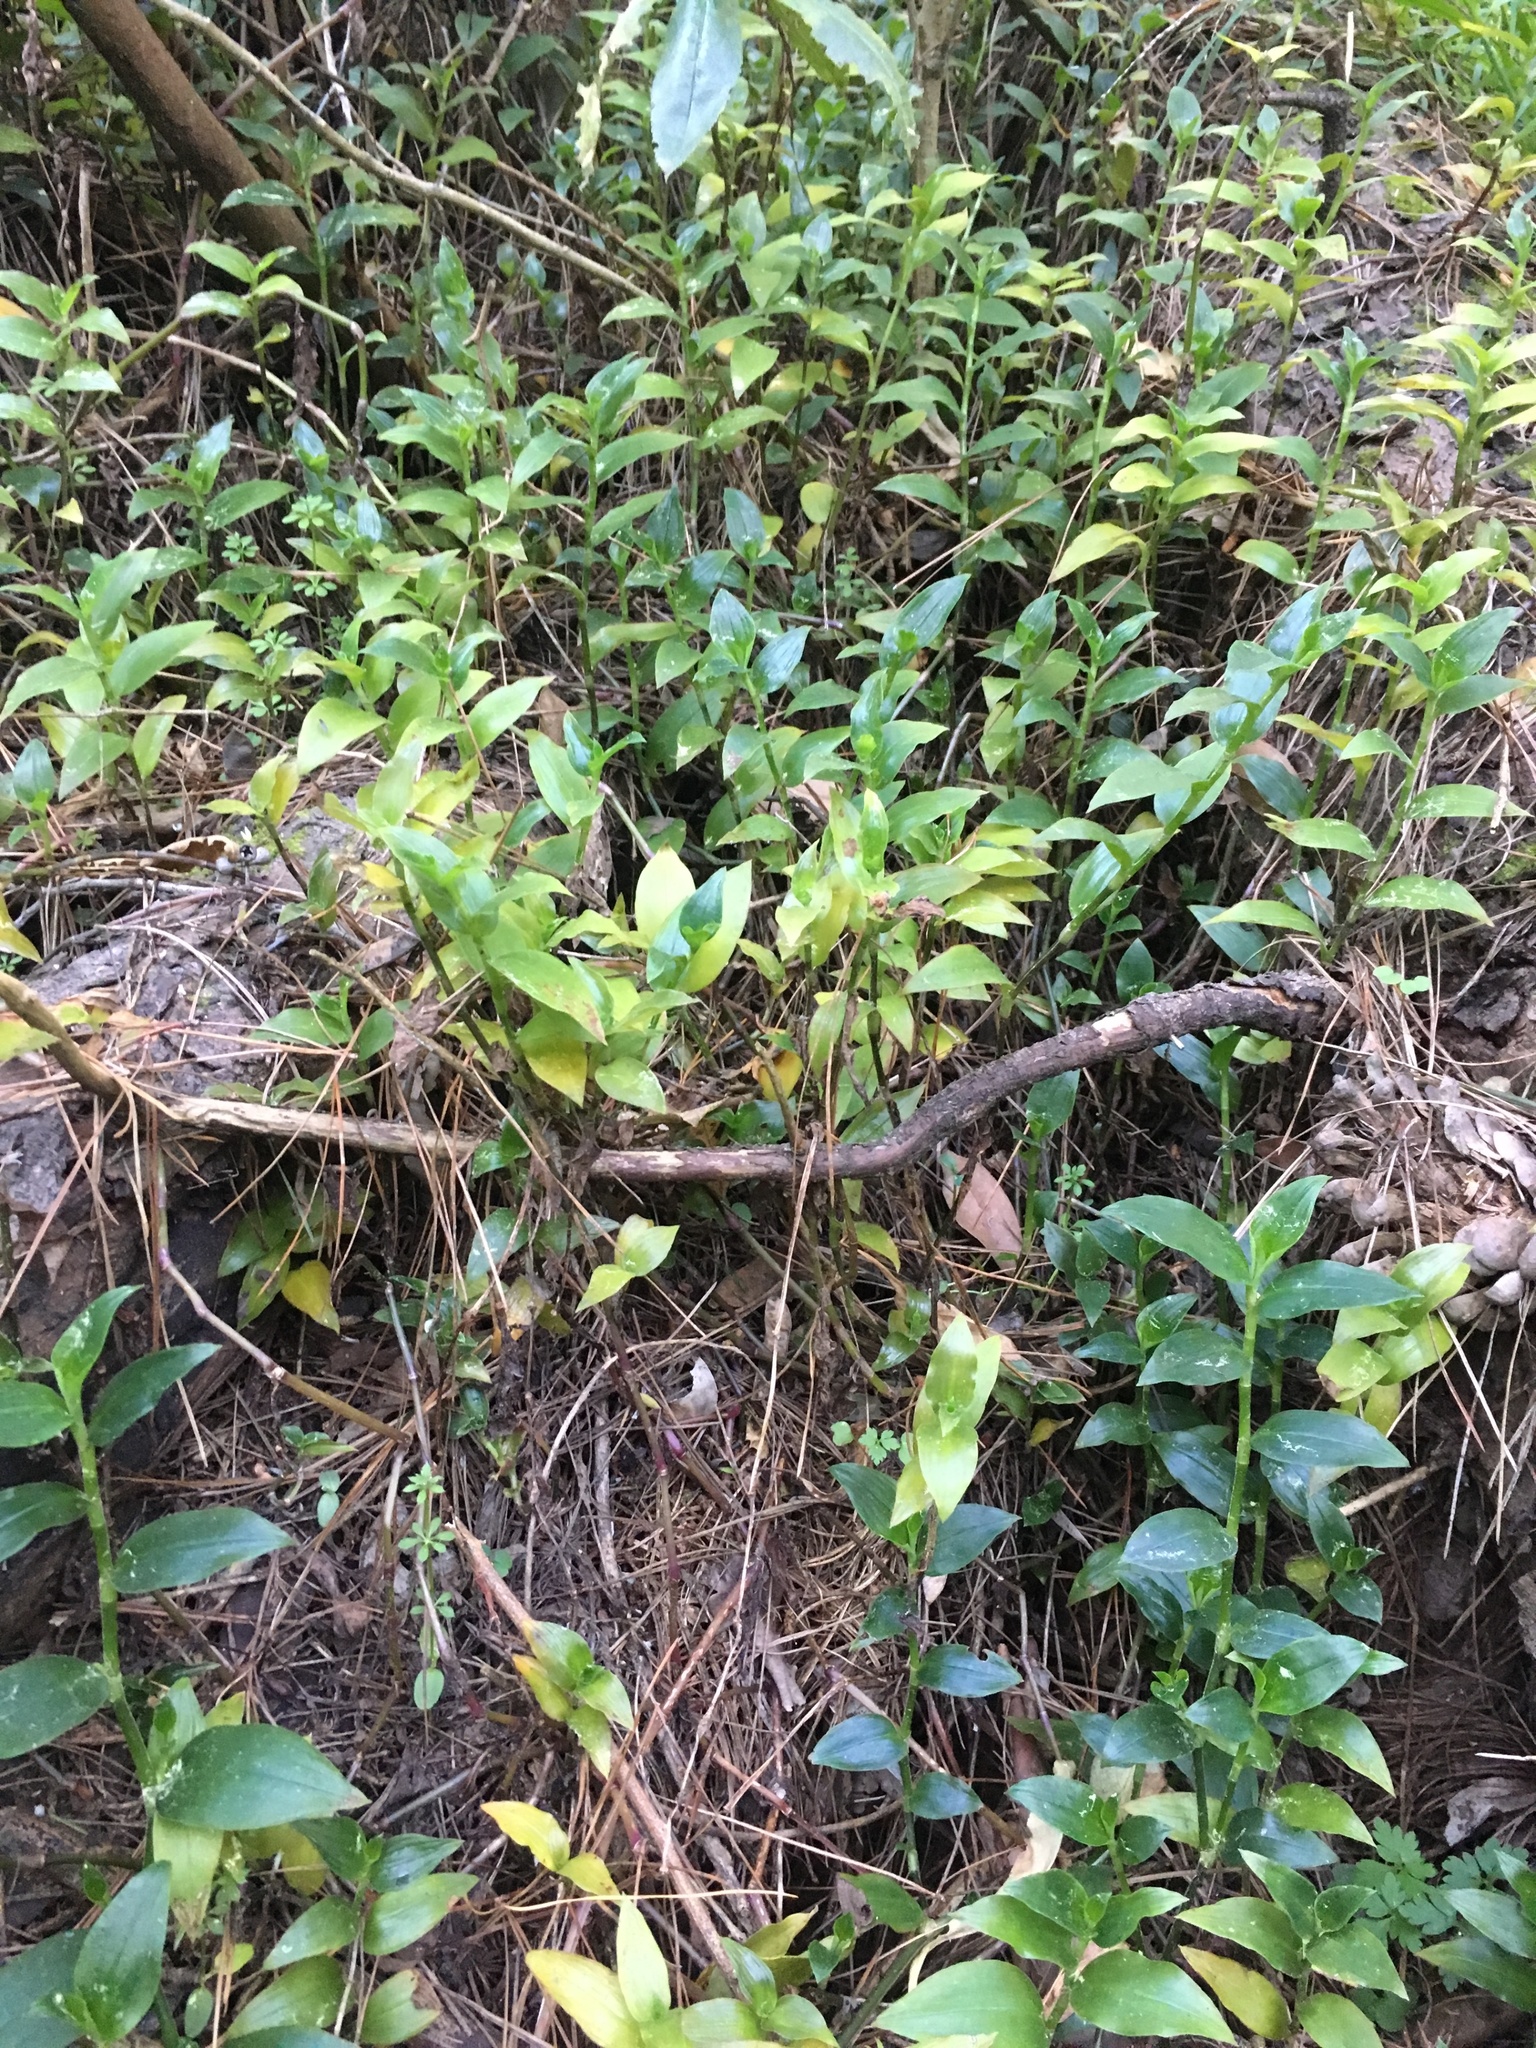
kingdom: Plantae
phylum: Tracheophyta
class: Liliopsida
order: Commelinales
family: Commelinaceae
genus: Tradescantia
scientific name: Tradescantia fluminensis
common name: Wandering-jew
